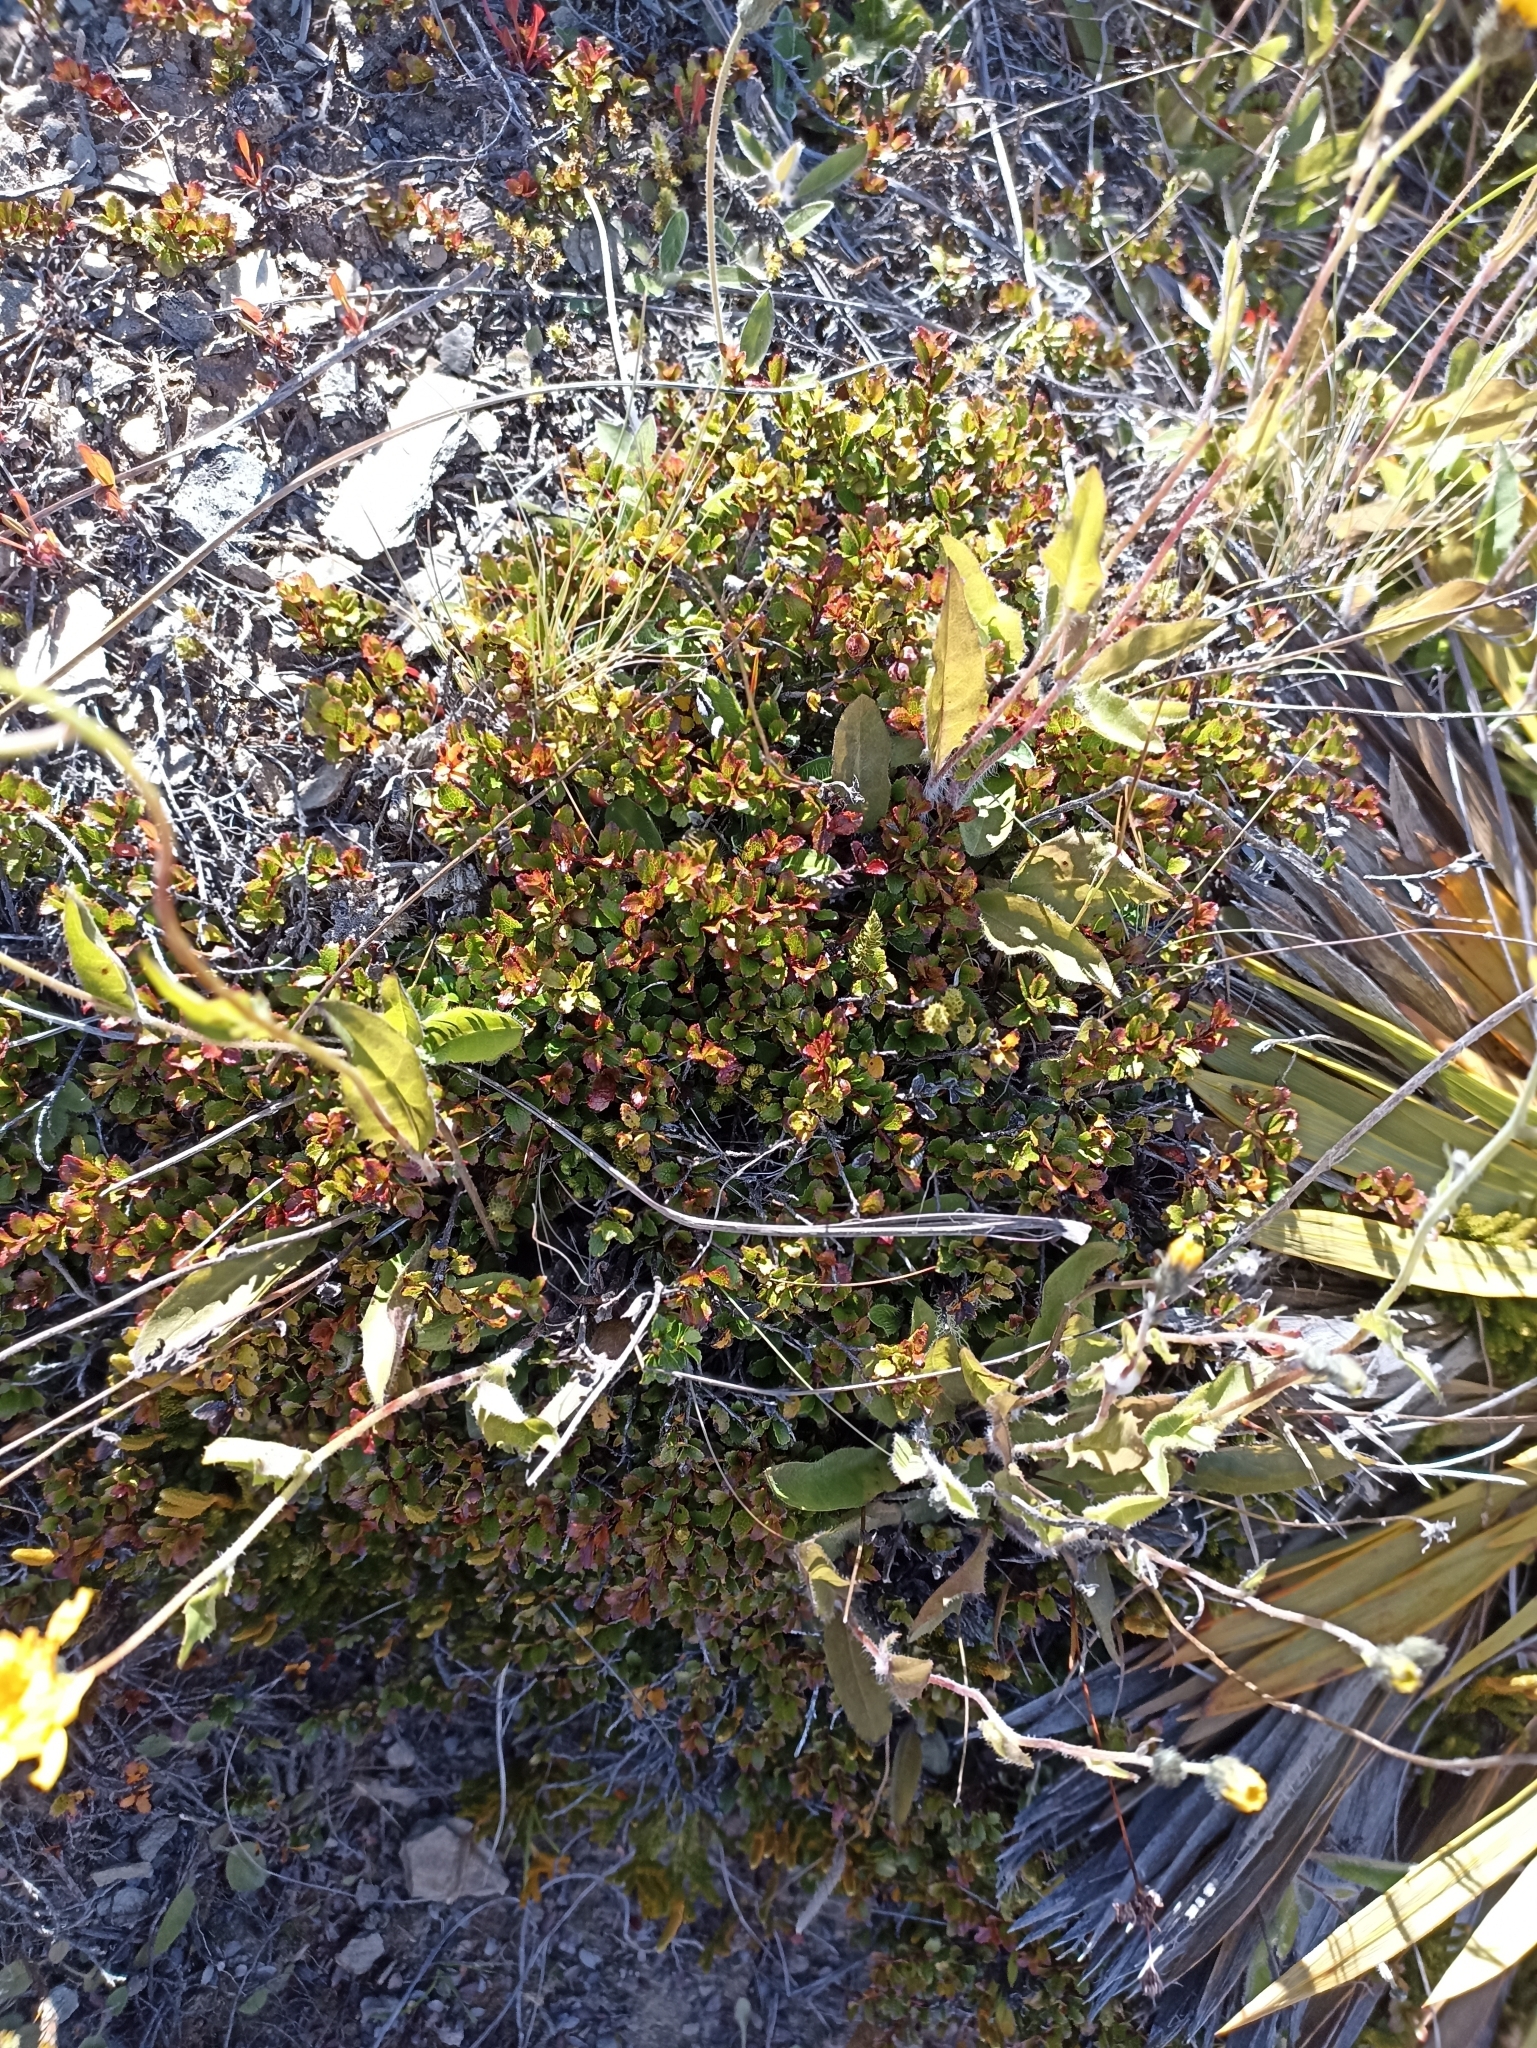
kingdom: Plantae
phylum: Tracheophyta
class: Magnoliopsida
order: Ericales
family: Ericaceae
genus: Gaultheria
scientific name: Gaultheria depressa
